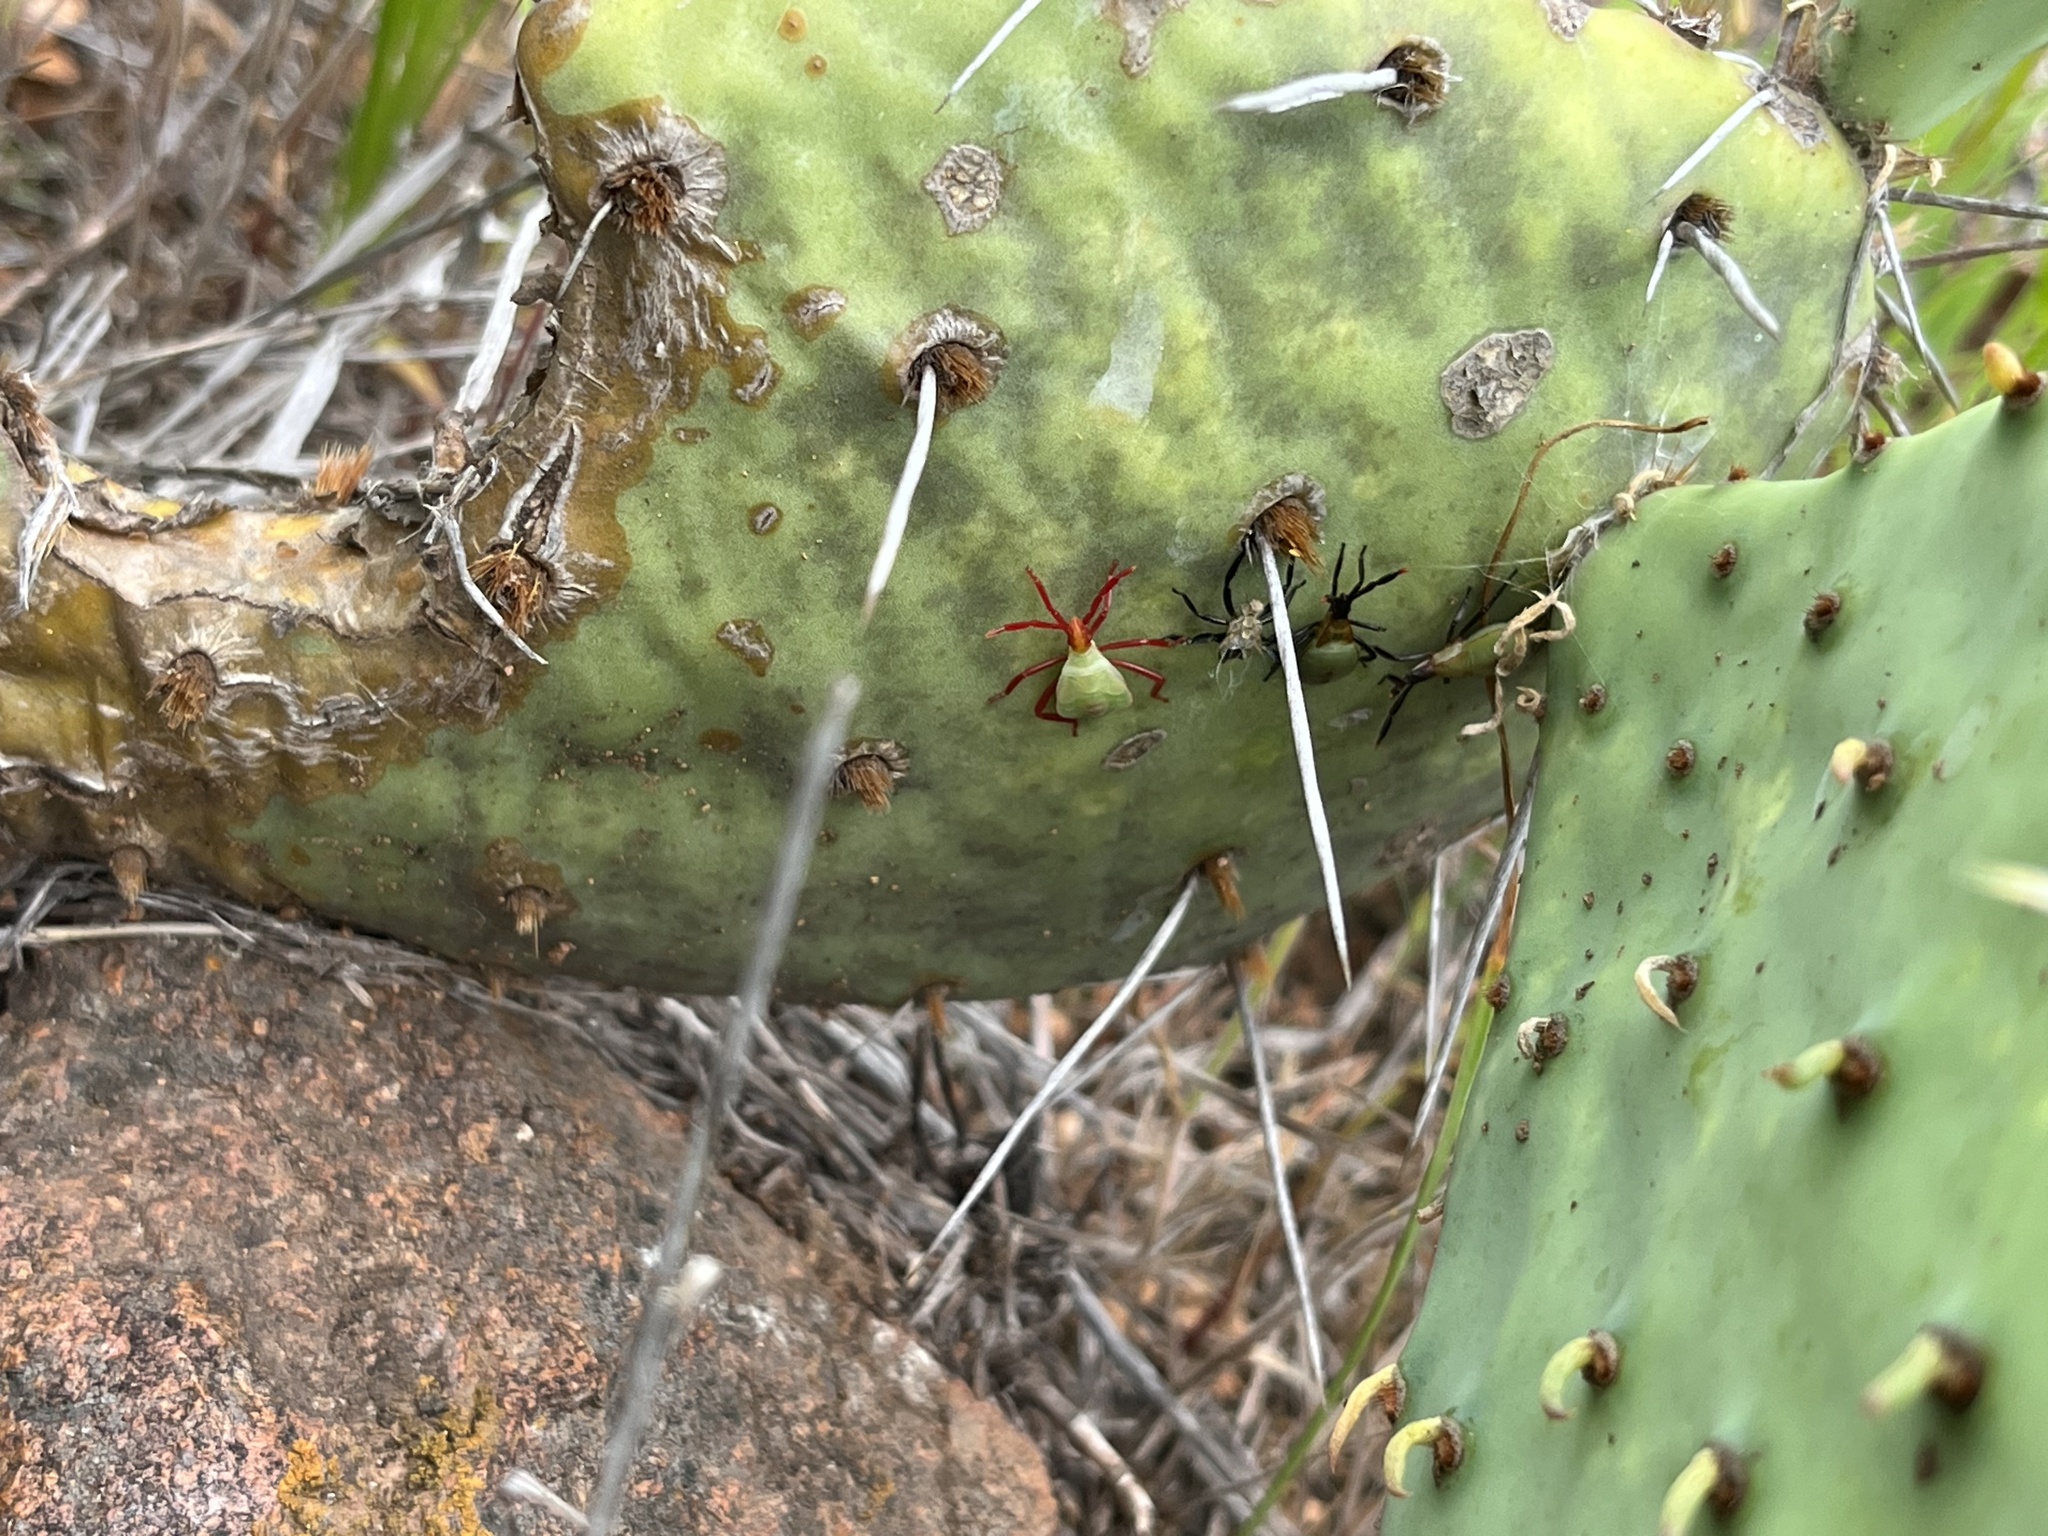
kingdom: Animalia
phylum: Arthropoda
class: Insecta
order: Hemiptera
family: Coreidae
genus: Chelinidea
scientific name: Chelinidea vittiger
